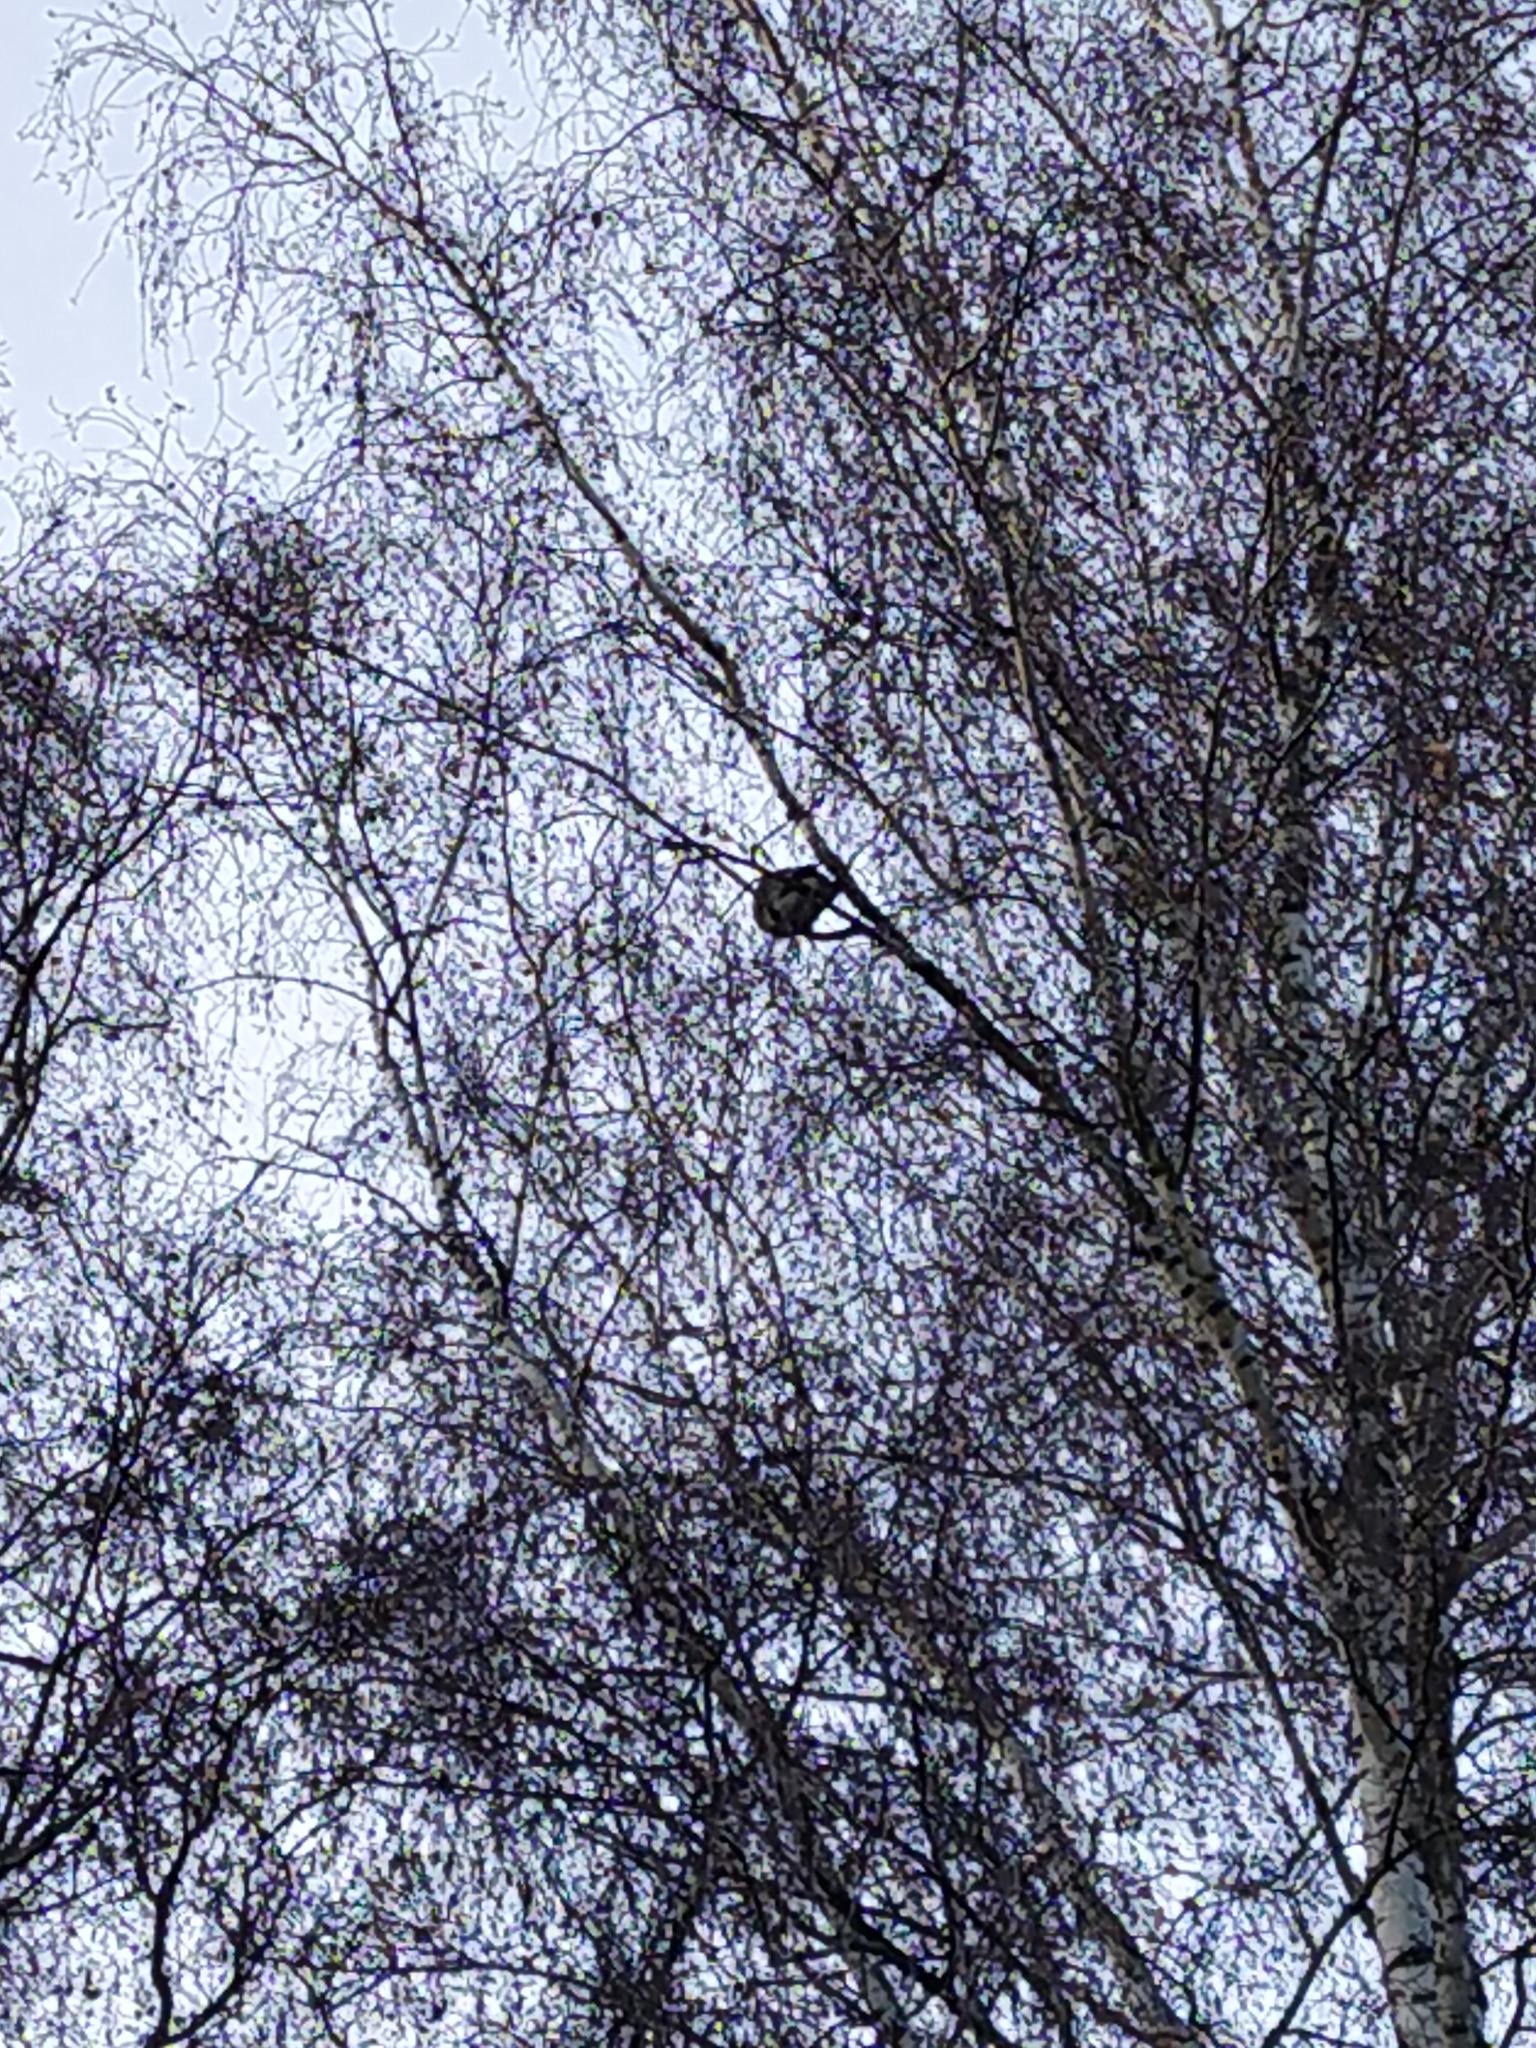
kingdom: Animalia
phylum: Chordata
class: Aves
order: Columbiformes
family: Columbidae
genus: Columba
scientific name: Columba palumbus
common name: Common wood pigeon
